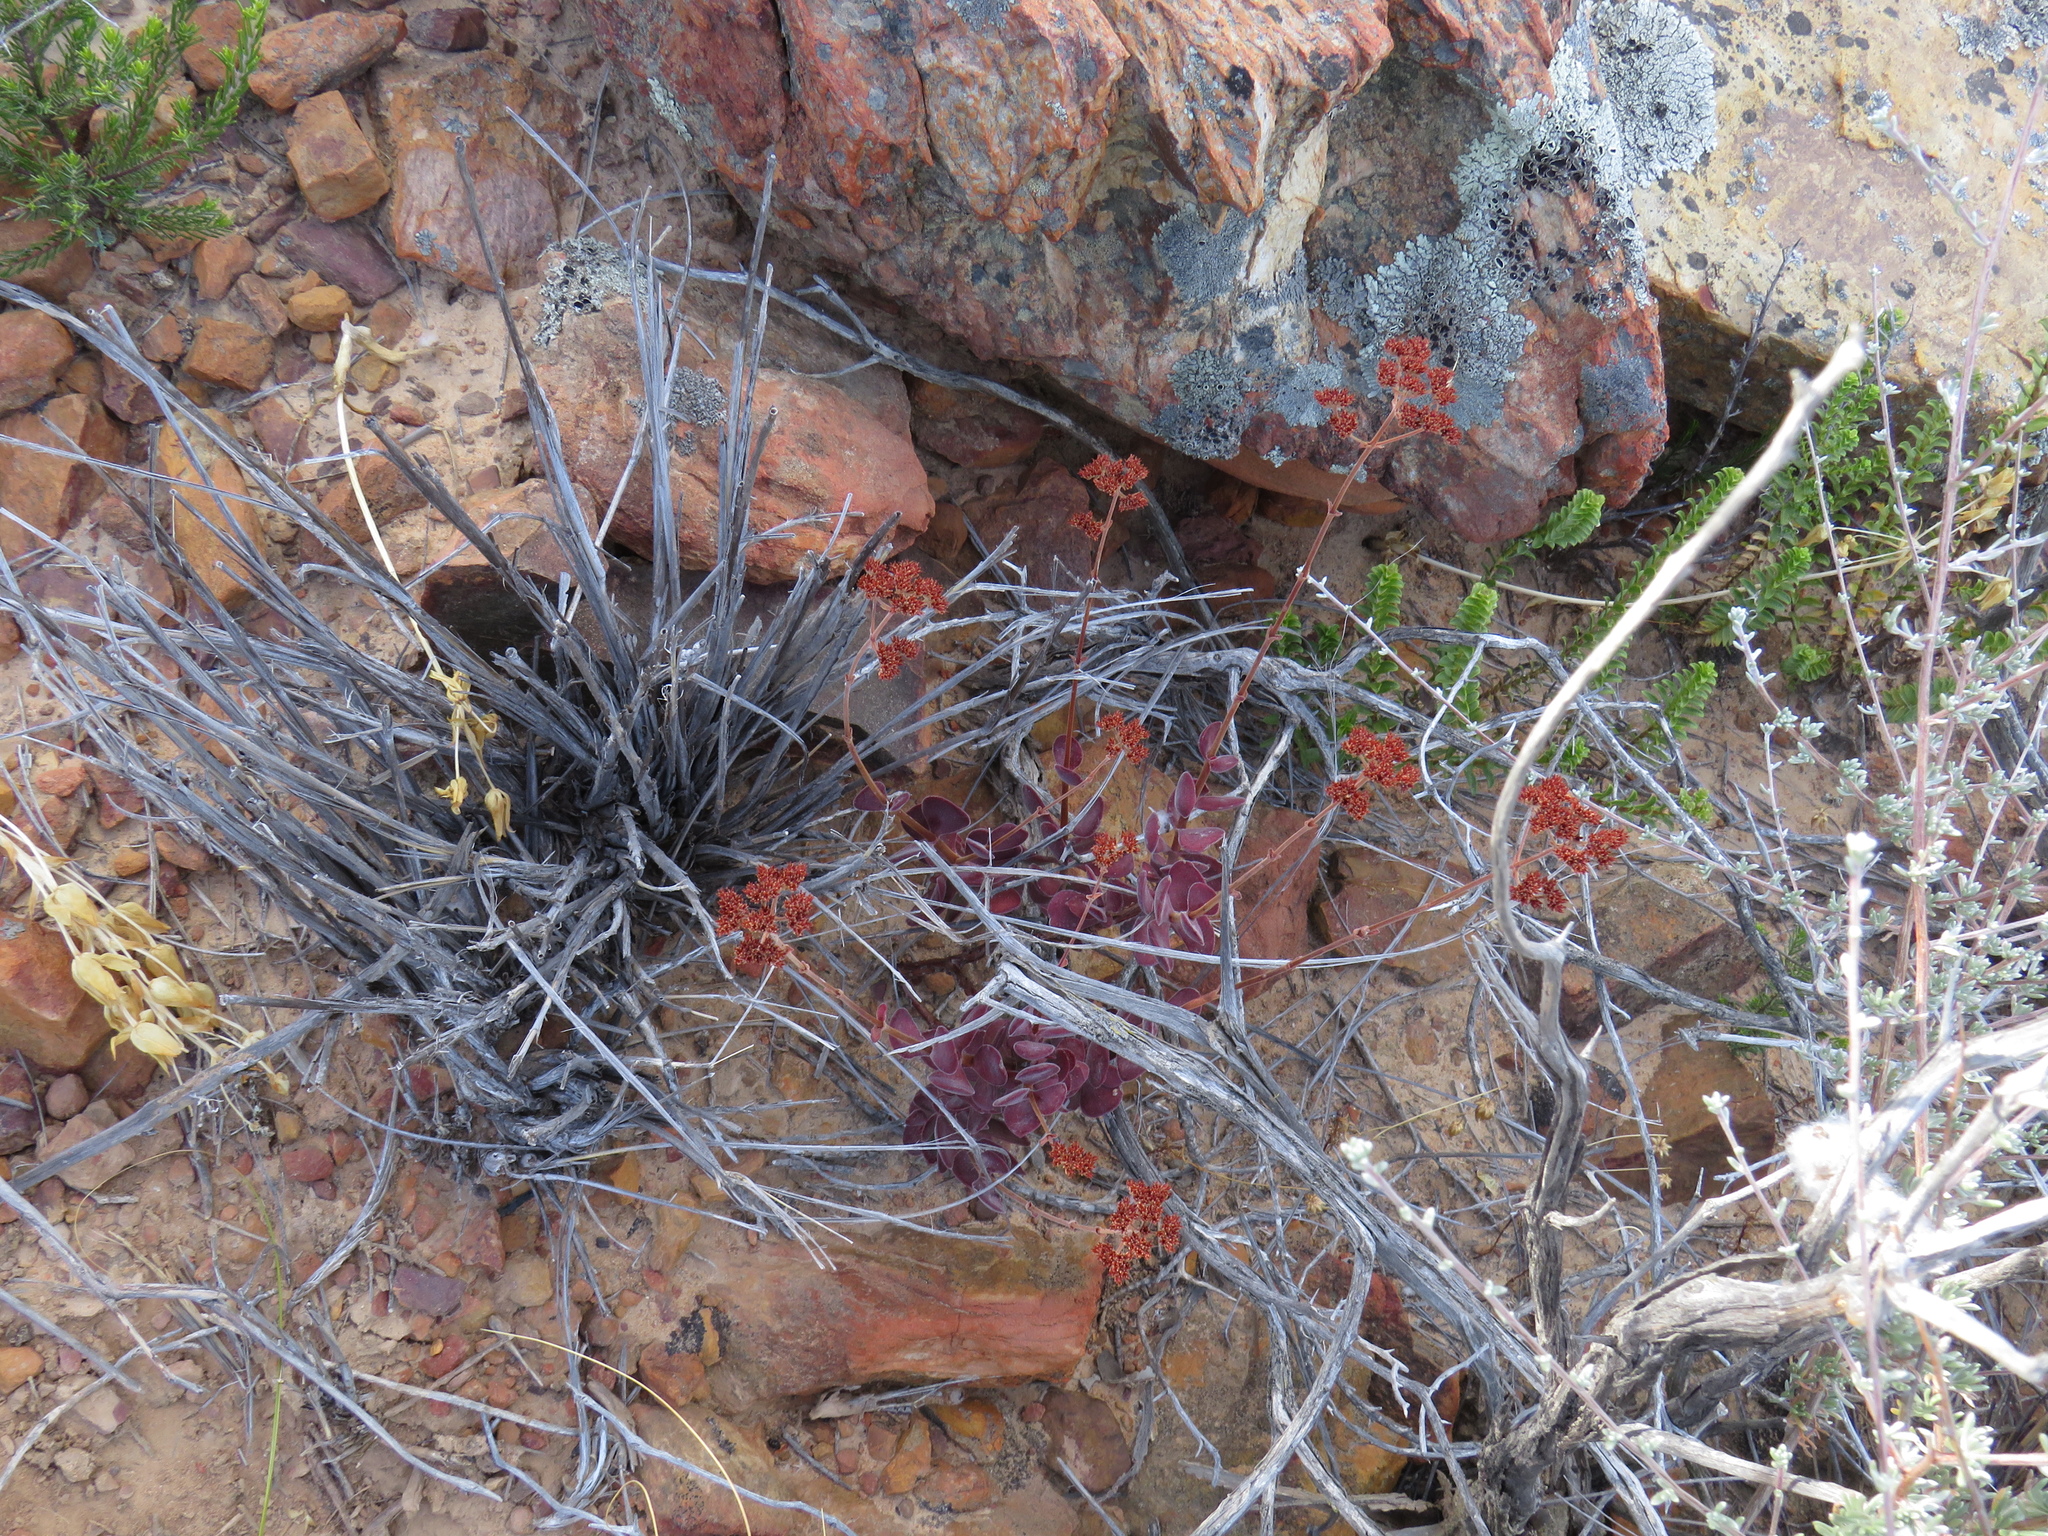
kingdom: Plantae
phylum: Tracheophyta
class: Magnoliopsida
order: Saxifragales
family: Crassulaceae
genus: Crassula
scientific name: Crassula atropurpurea
